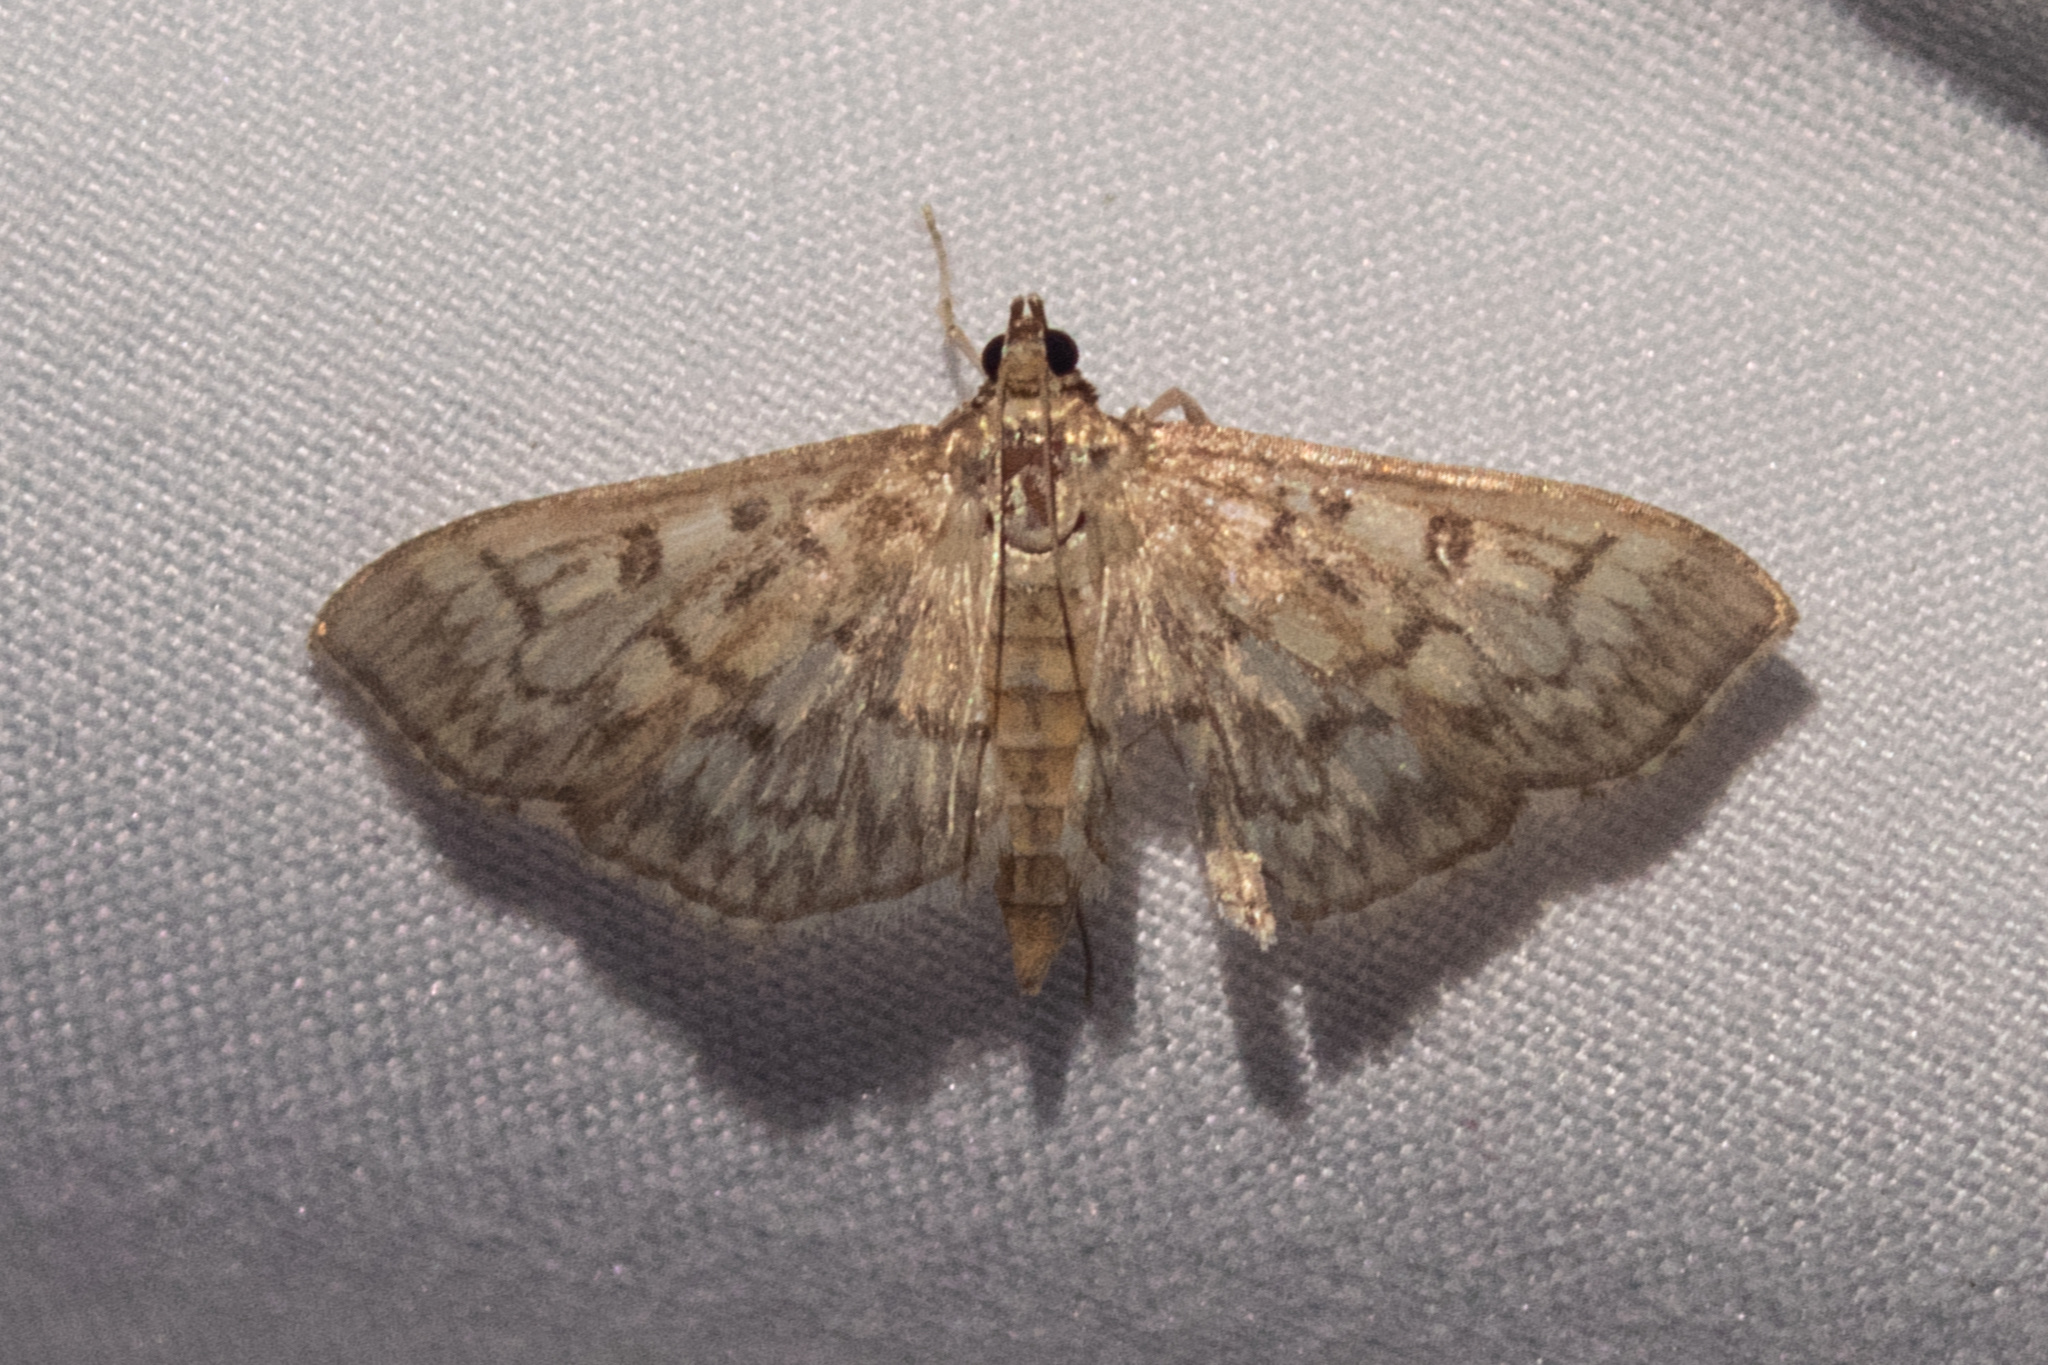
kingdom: Animalia
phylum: Arthropoda
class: Insecta
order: Lepidoptera
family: Crambidae
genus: Herpetogramma
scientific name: Herpetogramma pertextalis
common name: Bold-feathered grass moth
